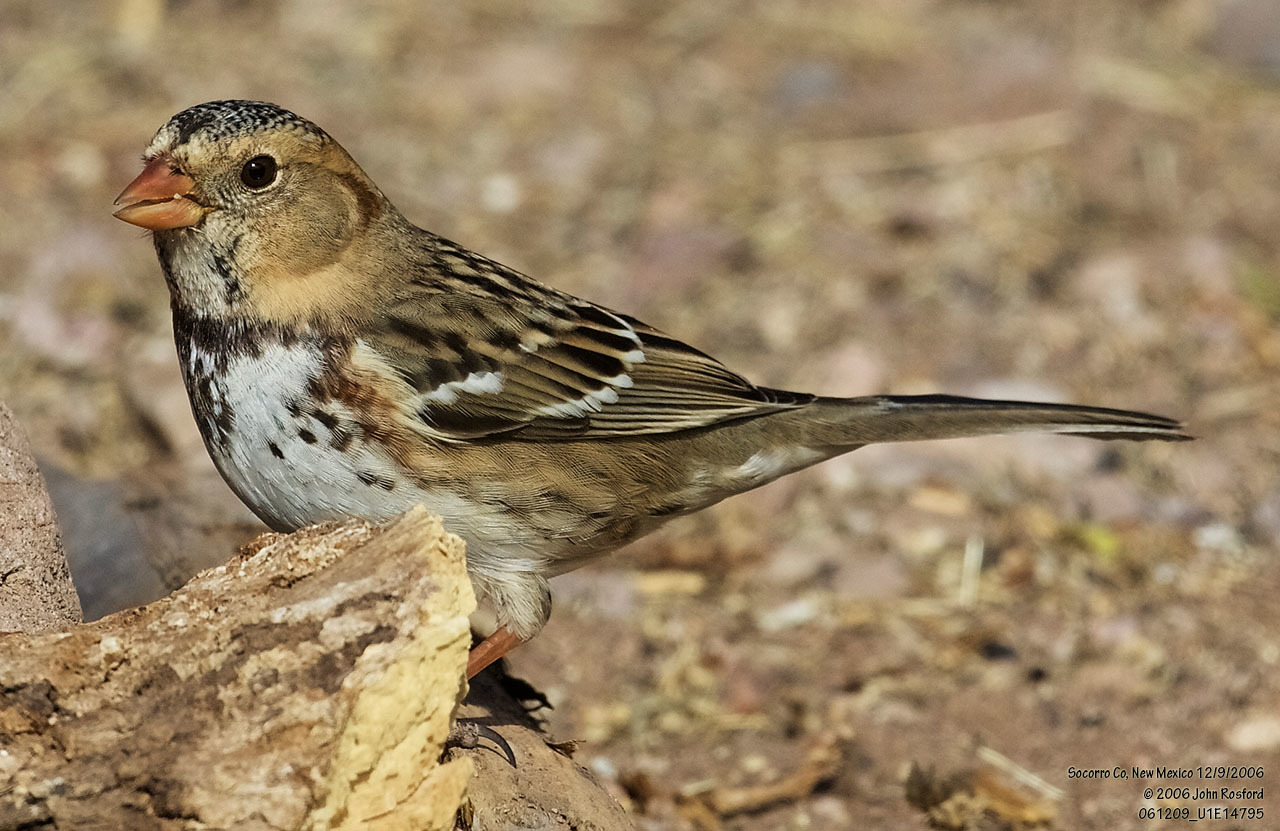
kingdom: Animalia
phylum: Chordata
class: Aves
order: Passeriformes
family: Passerellidae
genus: Zonotrichia
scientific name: Zonotrichia querula
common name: Harris's sparrow
